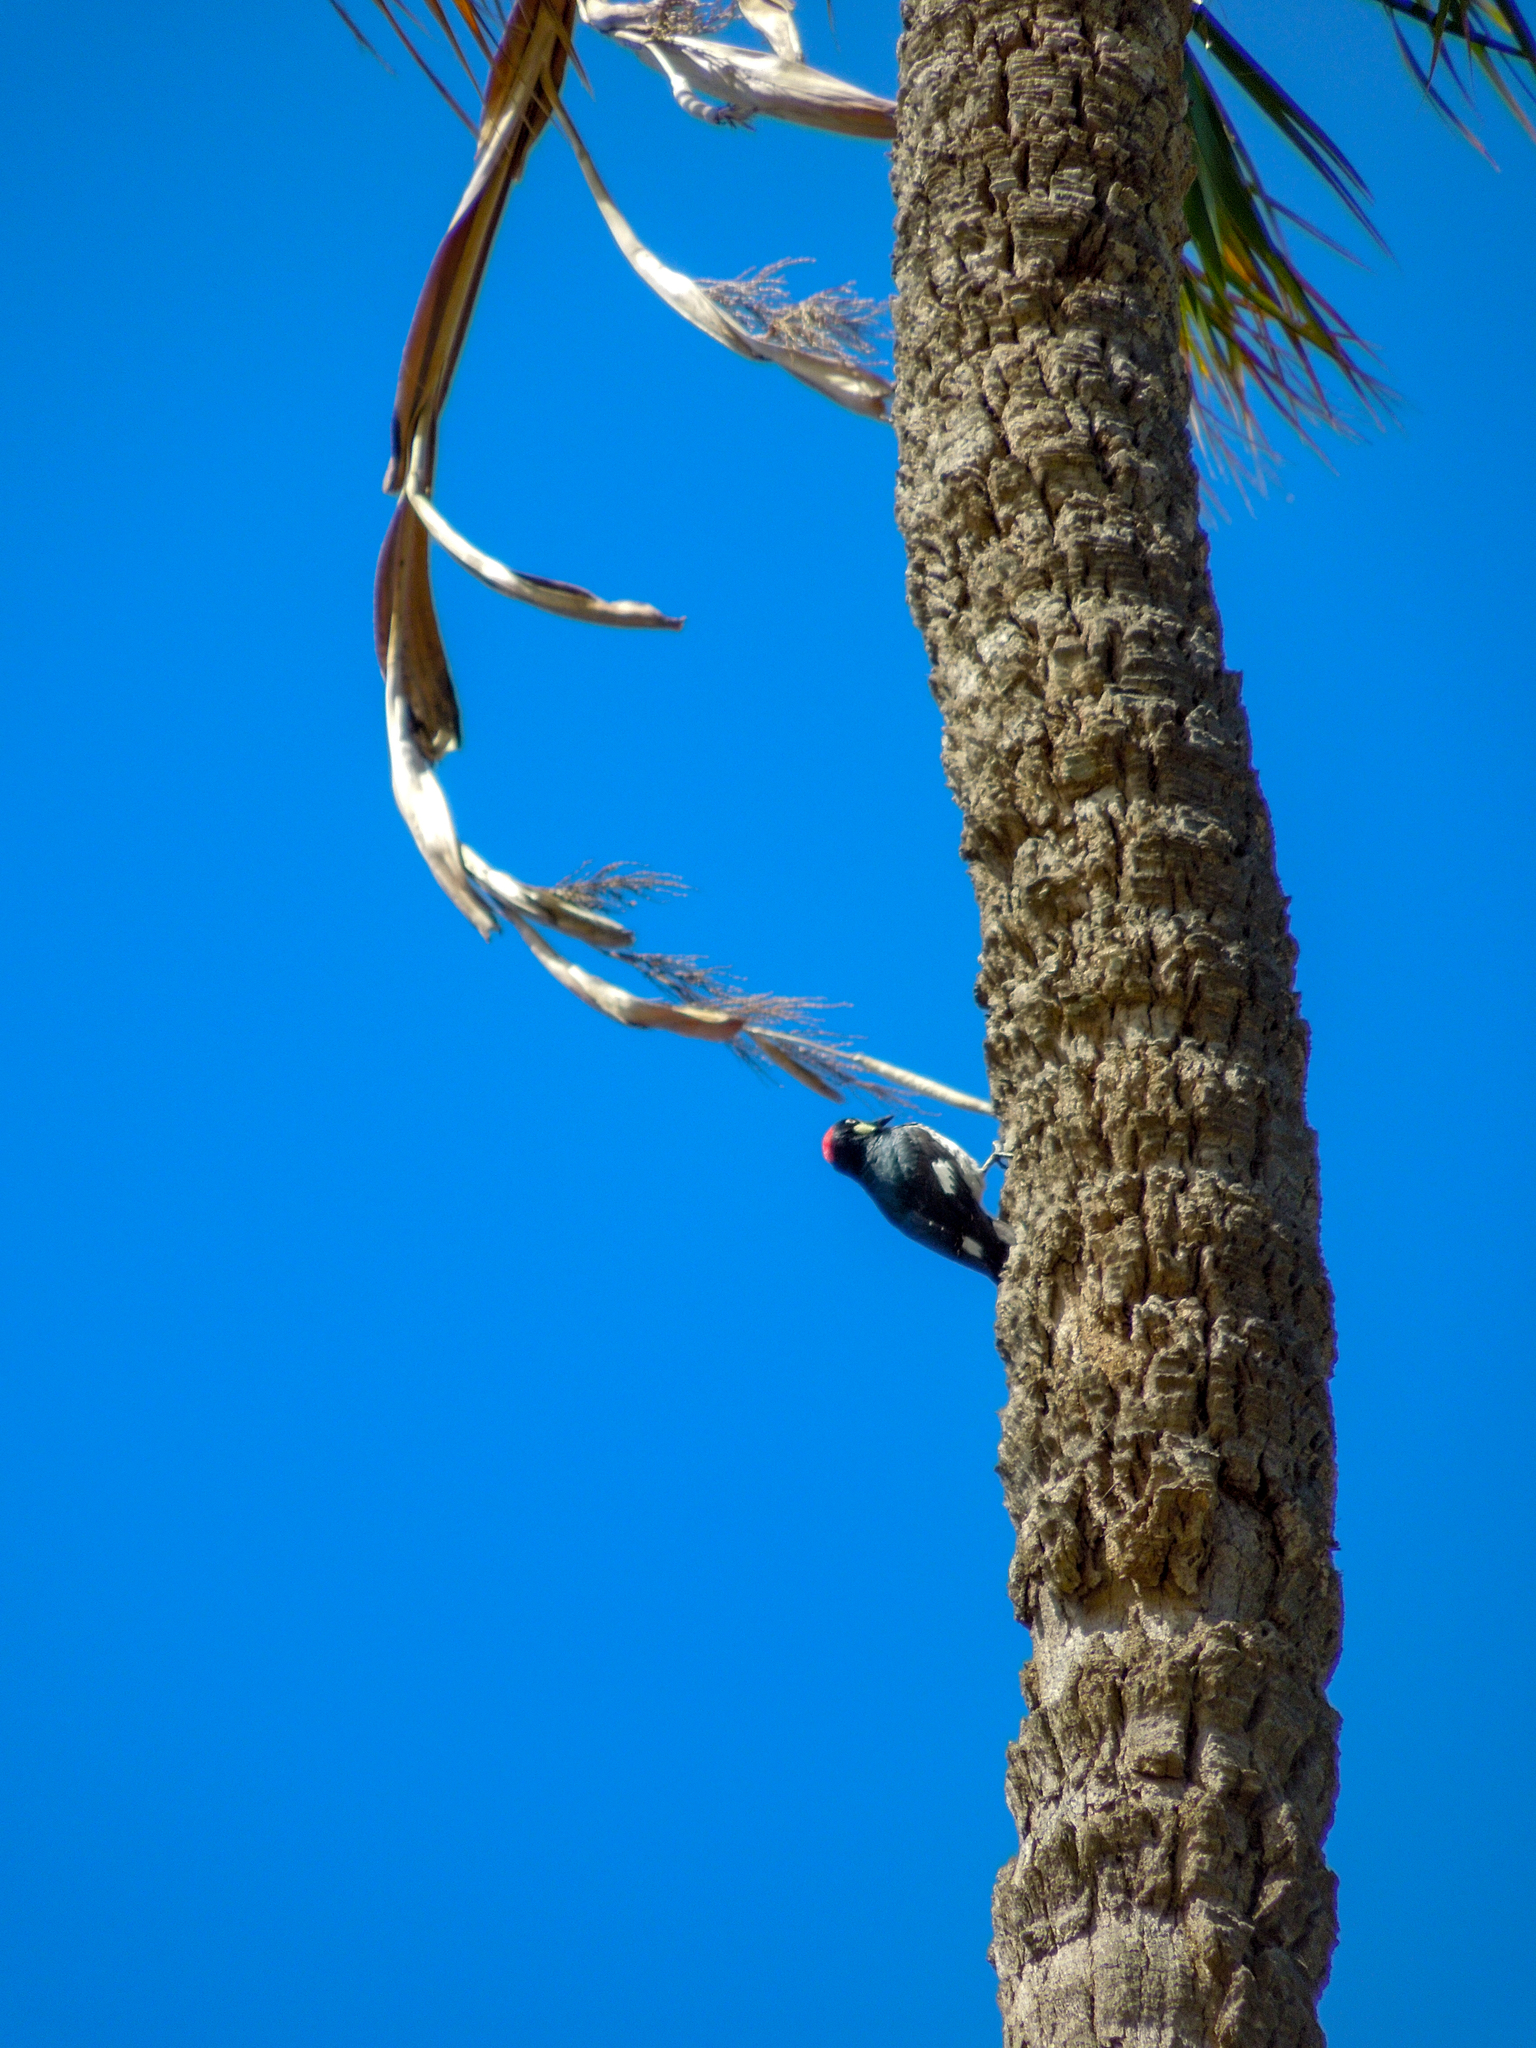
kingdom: Animalia
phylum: Chordata
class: Aves
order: Piciformes
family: Picidae
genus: Melanerpes
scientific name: Melanerpes formicivorus
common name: Acorn woodpecker
